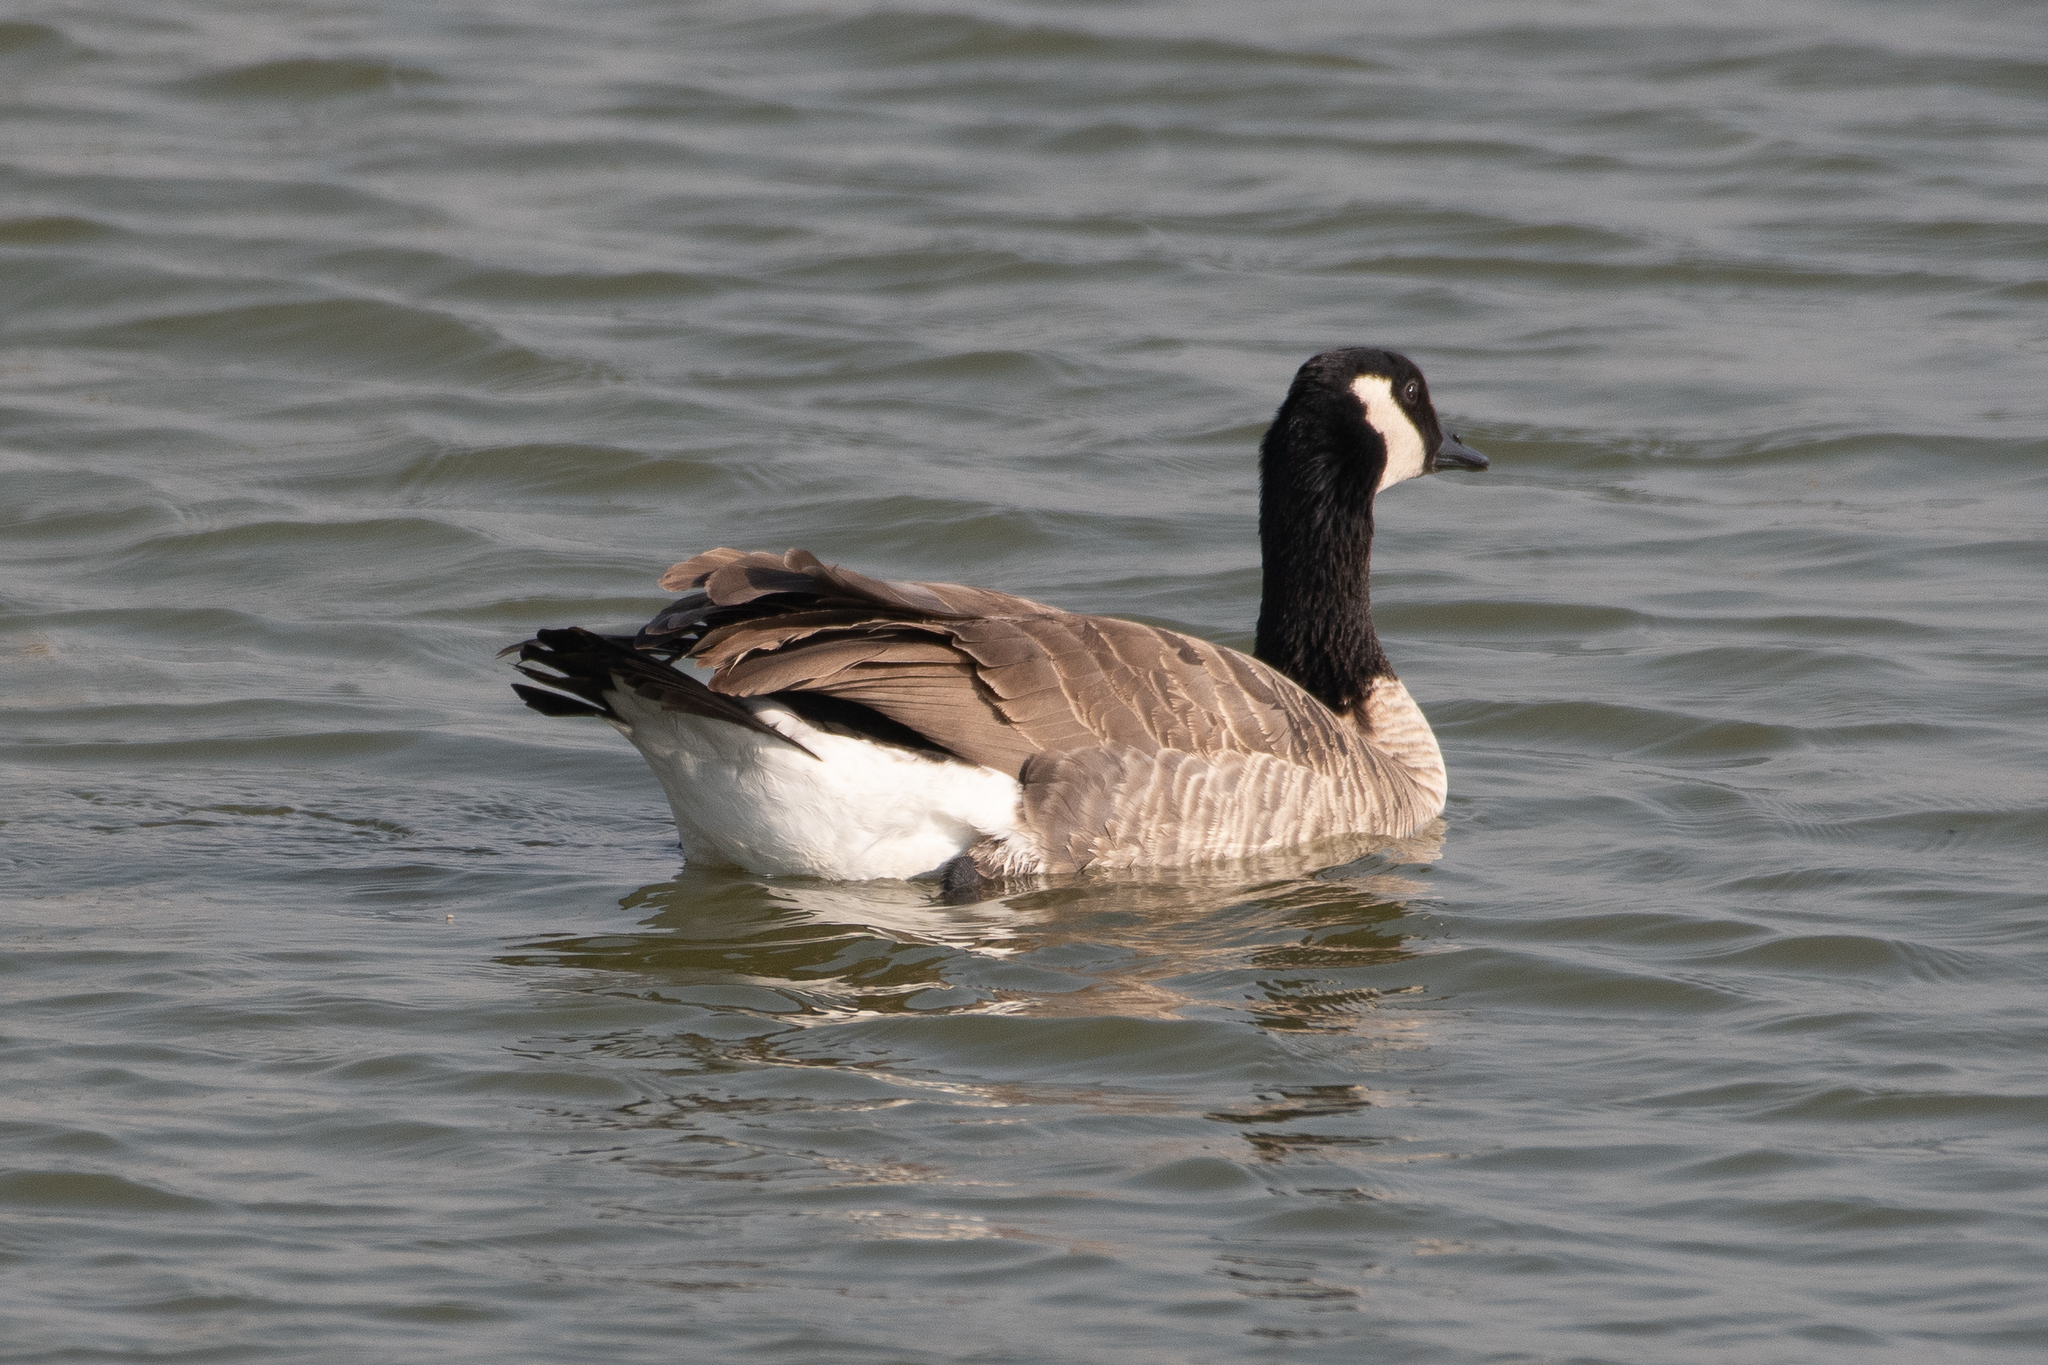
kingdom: Animalia
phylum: Chordata
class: Aves
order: Anseriformes
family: Anatidae
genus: Branta
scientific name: Branta hutchinsii
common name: Cackling goose
